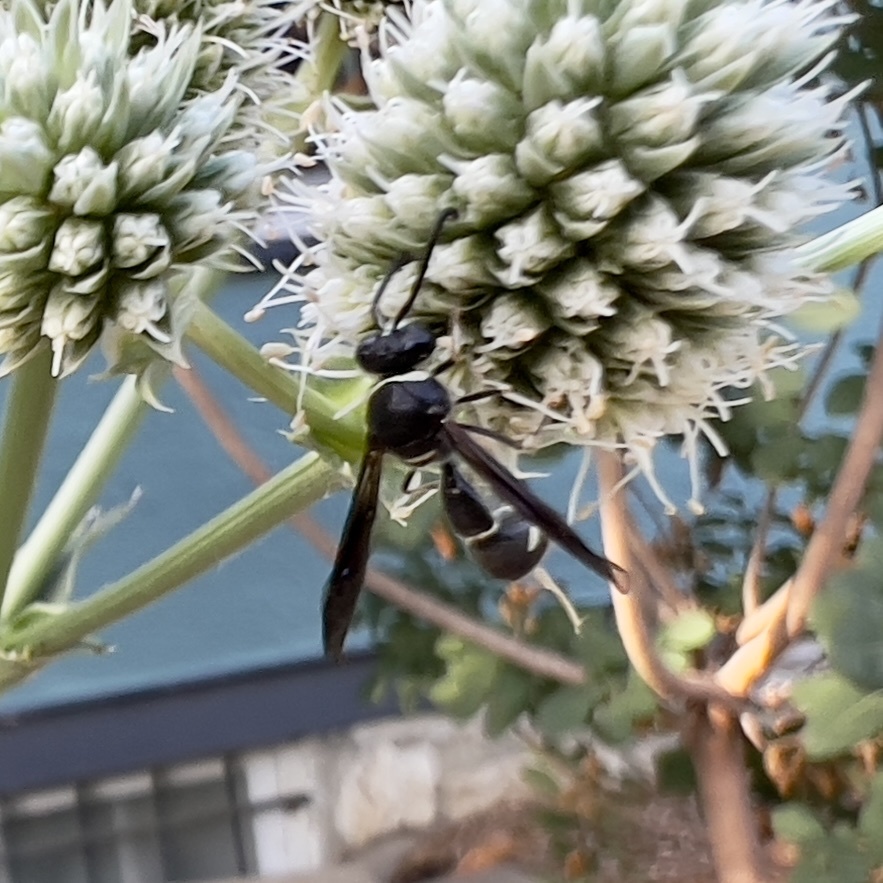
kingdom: Animalia
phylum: Arthropoda
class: Insecta
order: Hymenoptera
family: Vespidae
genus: Eumenes
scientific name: Eumenes fraternus
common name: Fraternal potter wasp
